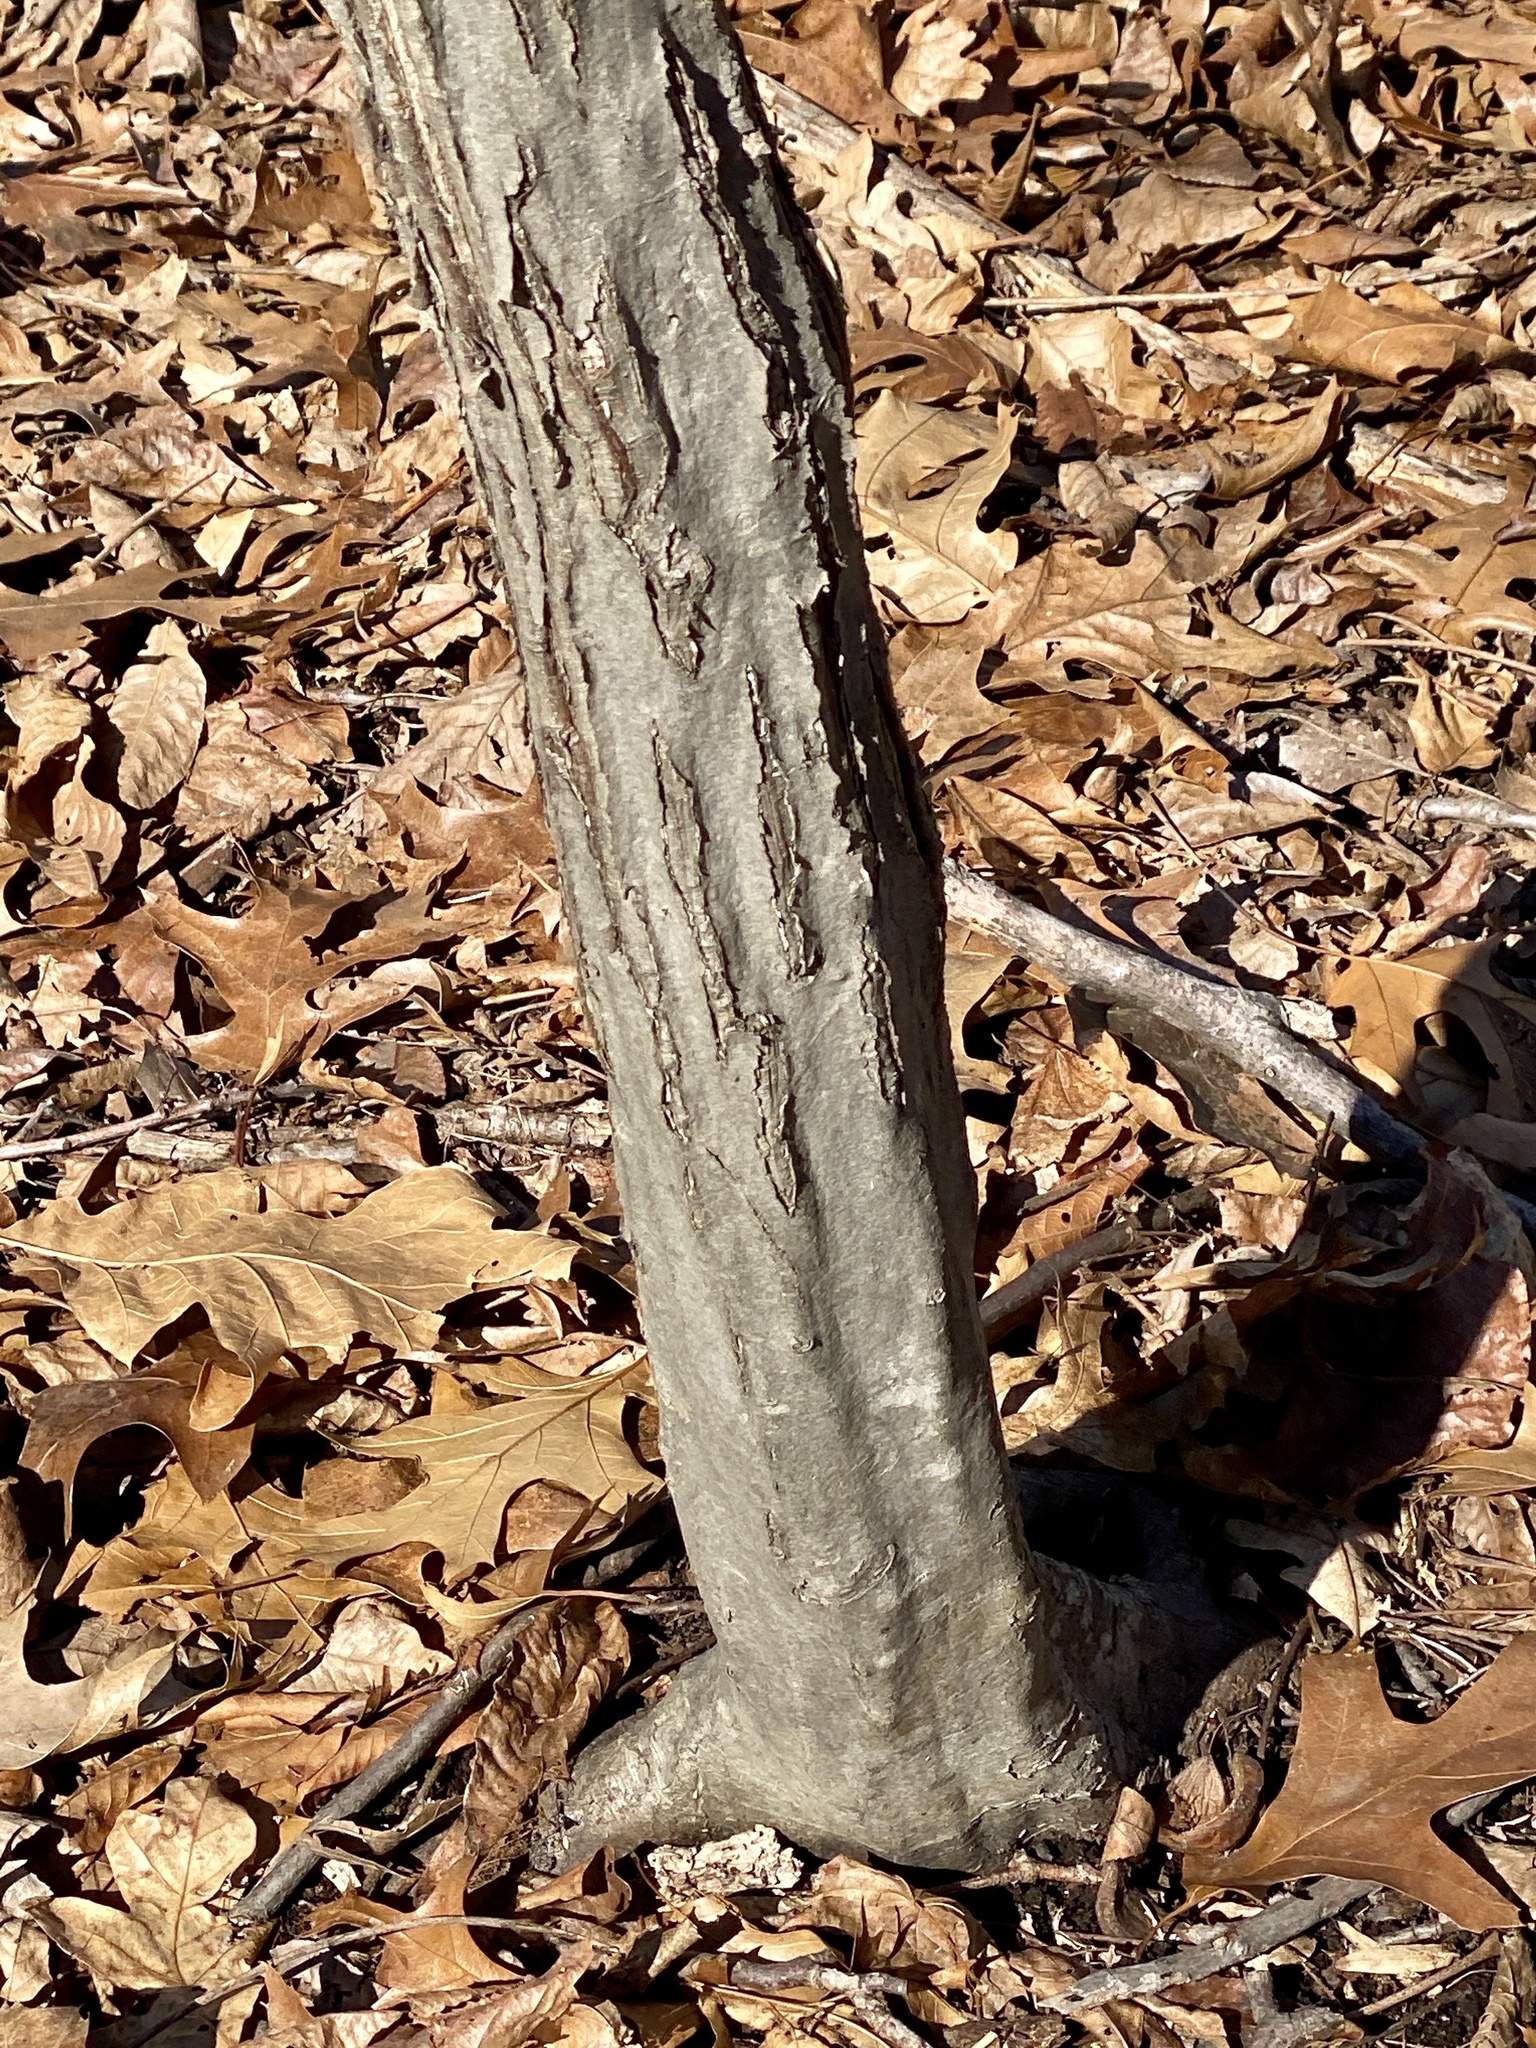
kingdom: Plantae
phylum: Tracheophyta
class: Magnoliopsida
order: Fagales
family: Betulaceae
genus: Carpinus
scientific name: Carpinus caroliniana
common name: American hornbeam
